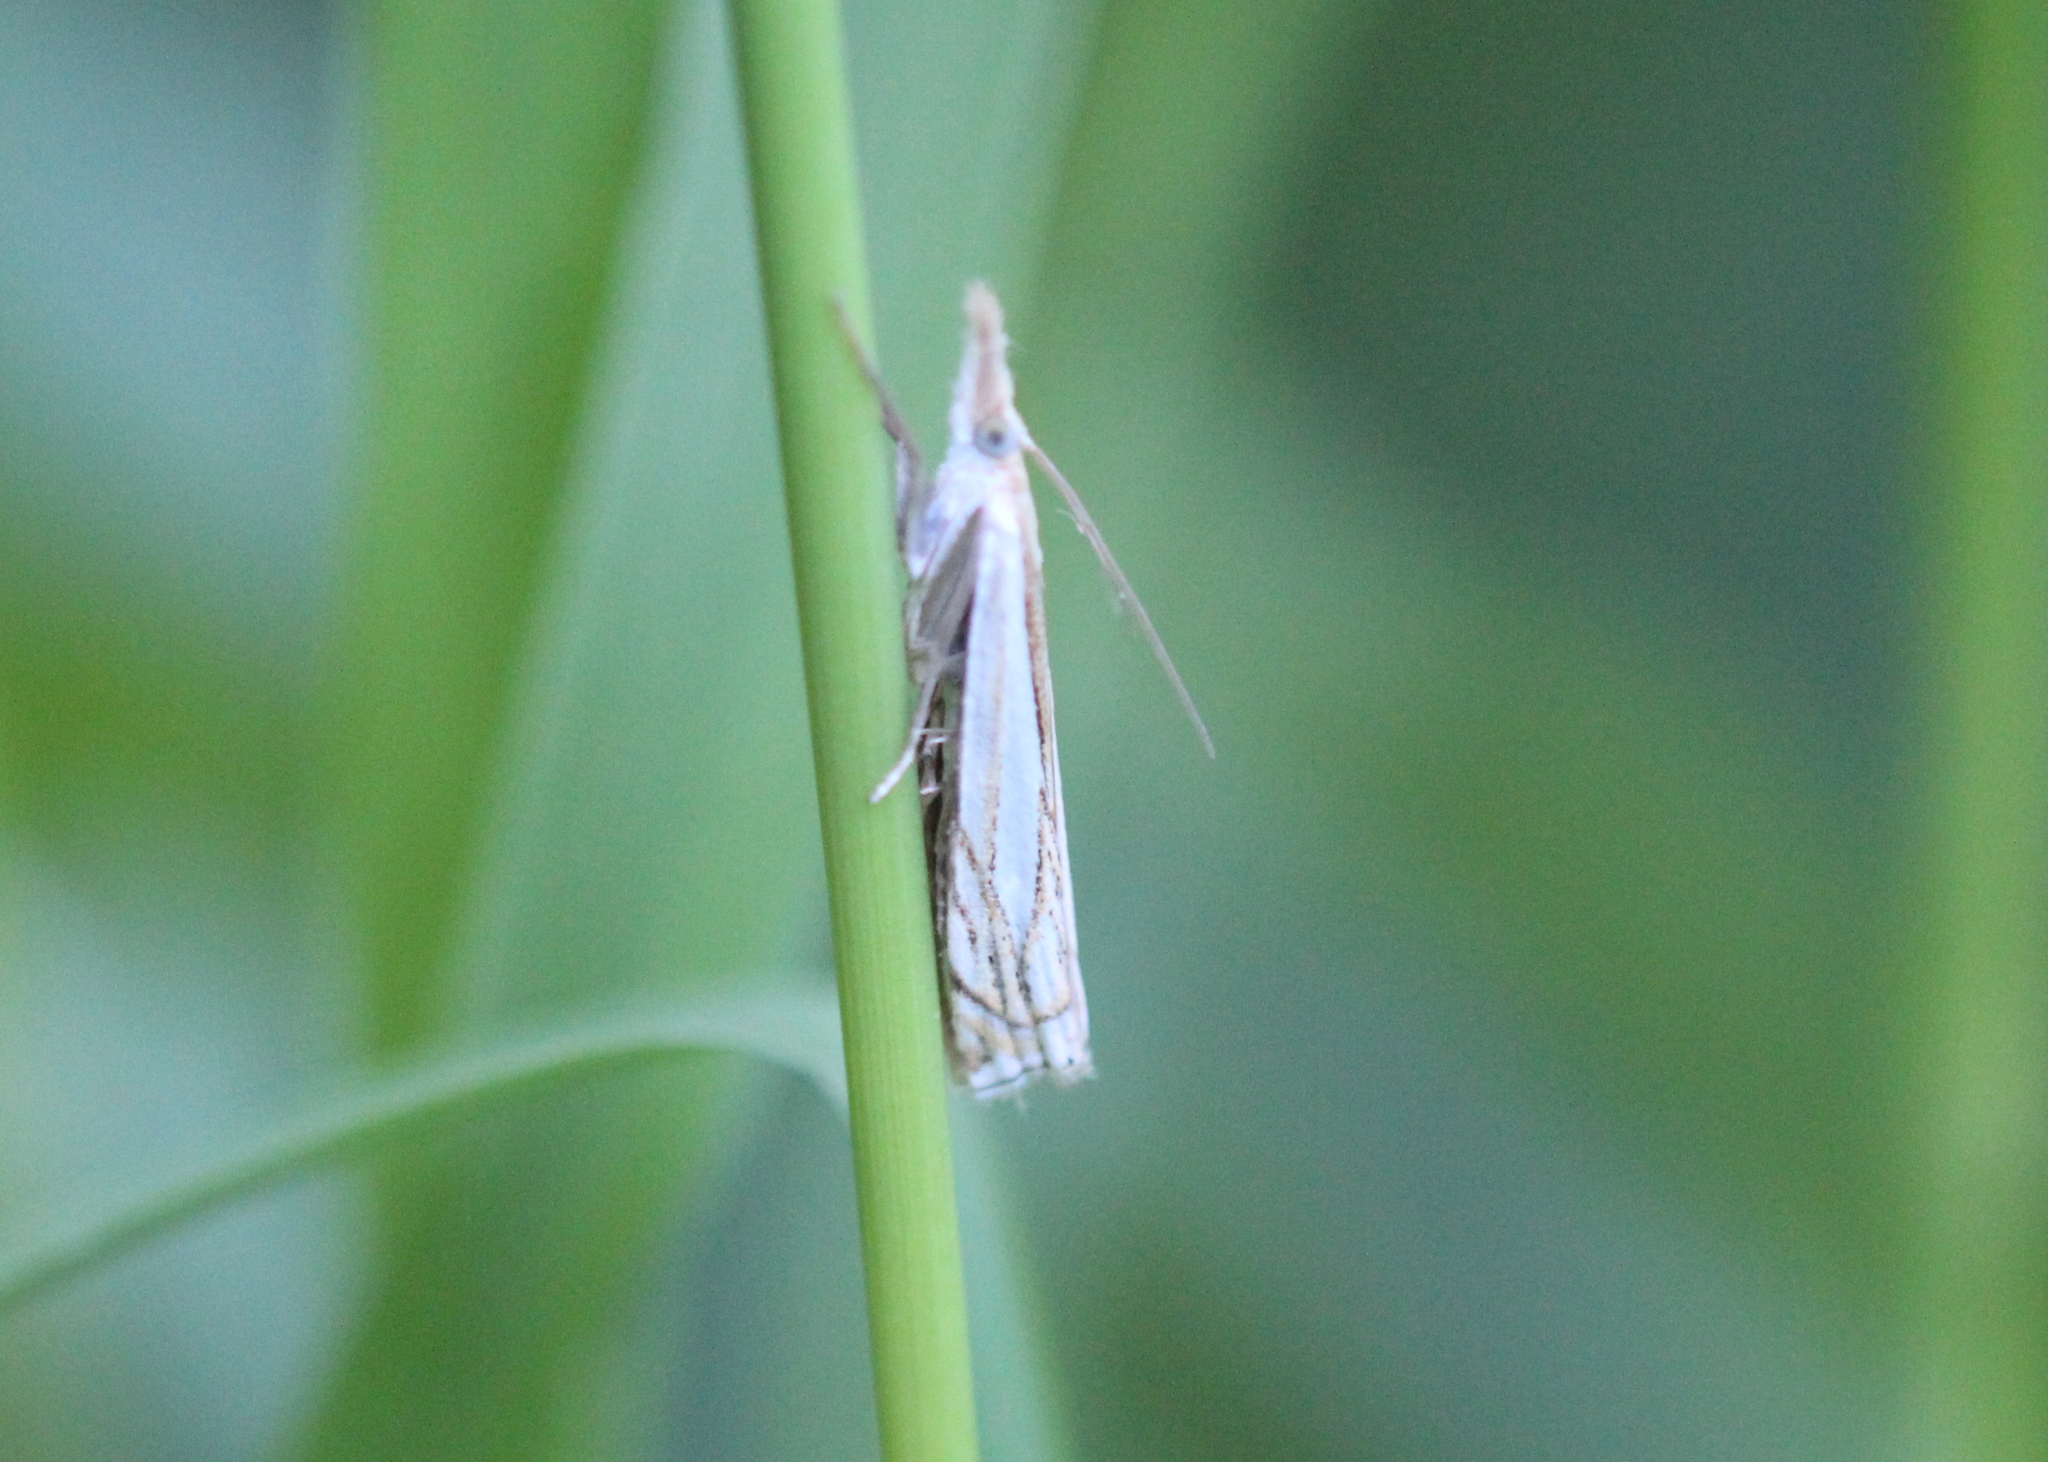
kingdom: Animalia
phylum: Arthropoda
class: Insecta
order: Lepidoptera
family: Crambidae
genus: Crambus
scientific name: Crambus saltuellus
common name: Pasture grass-veneer
